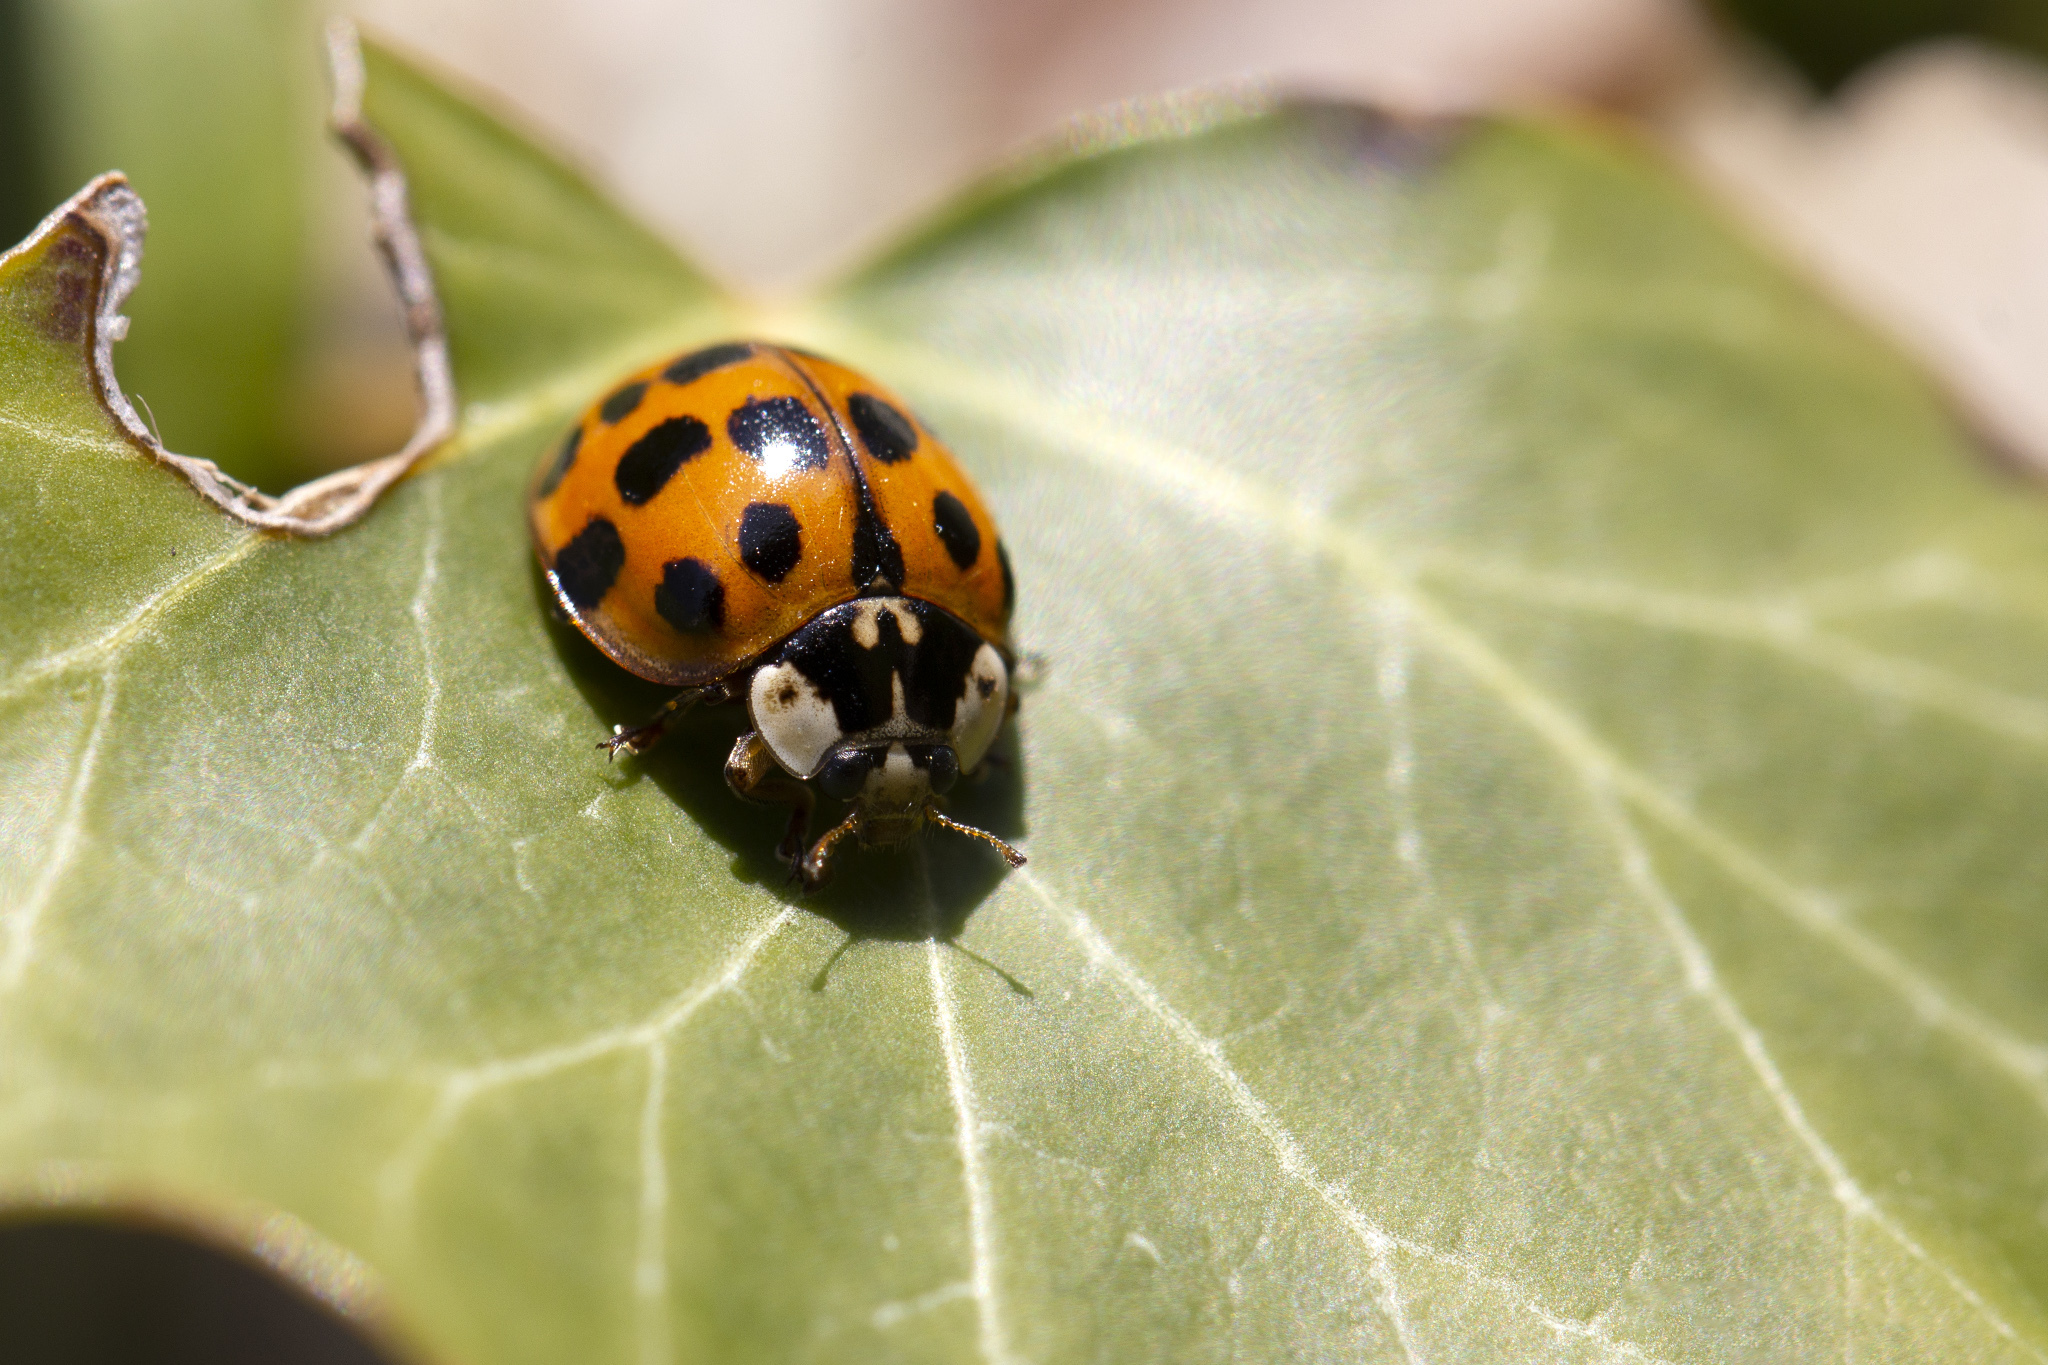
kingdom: Animalia
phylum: Arthropoda
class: Insecta
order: Coleoptera
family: Coccinellidae
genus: Harmonia
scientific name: Harmonia axyridis
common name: Harlequin ladybird
